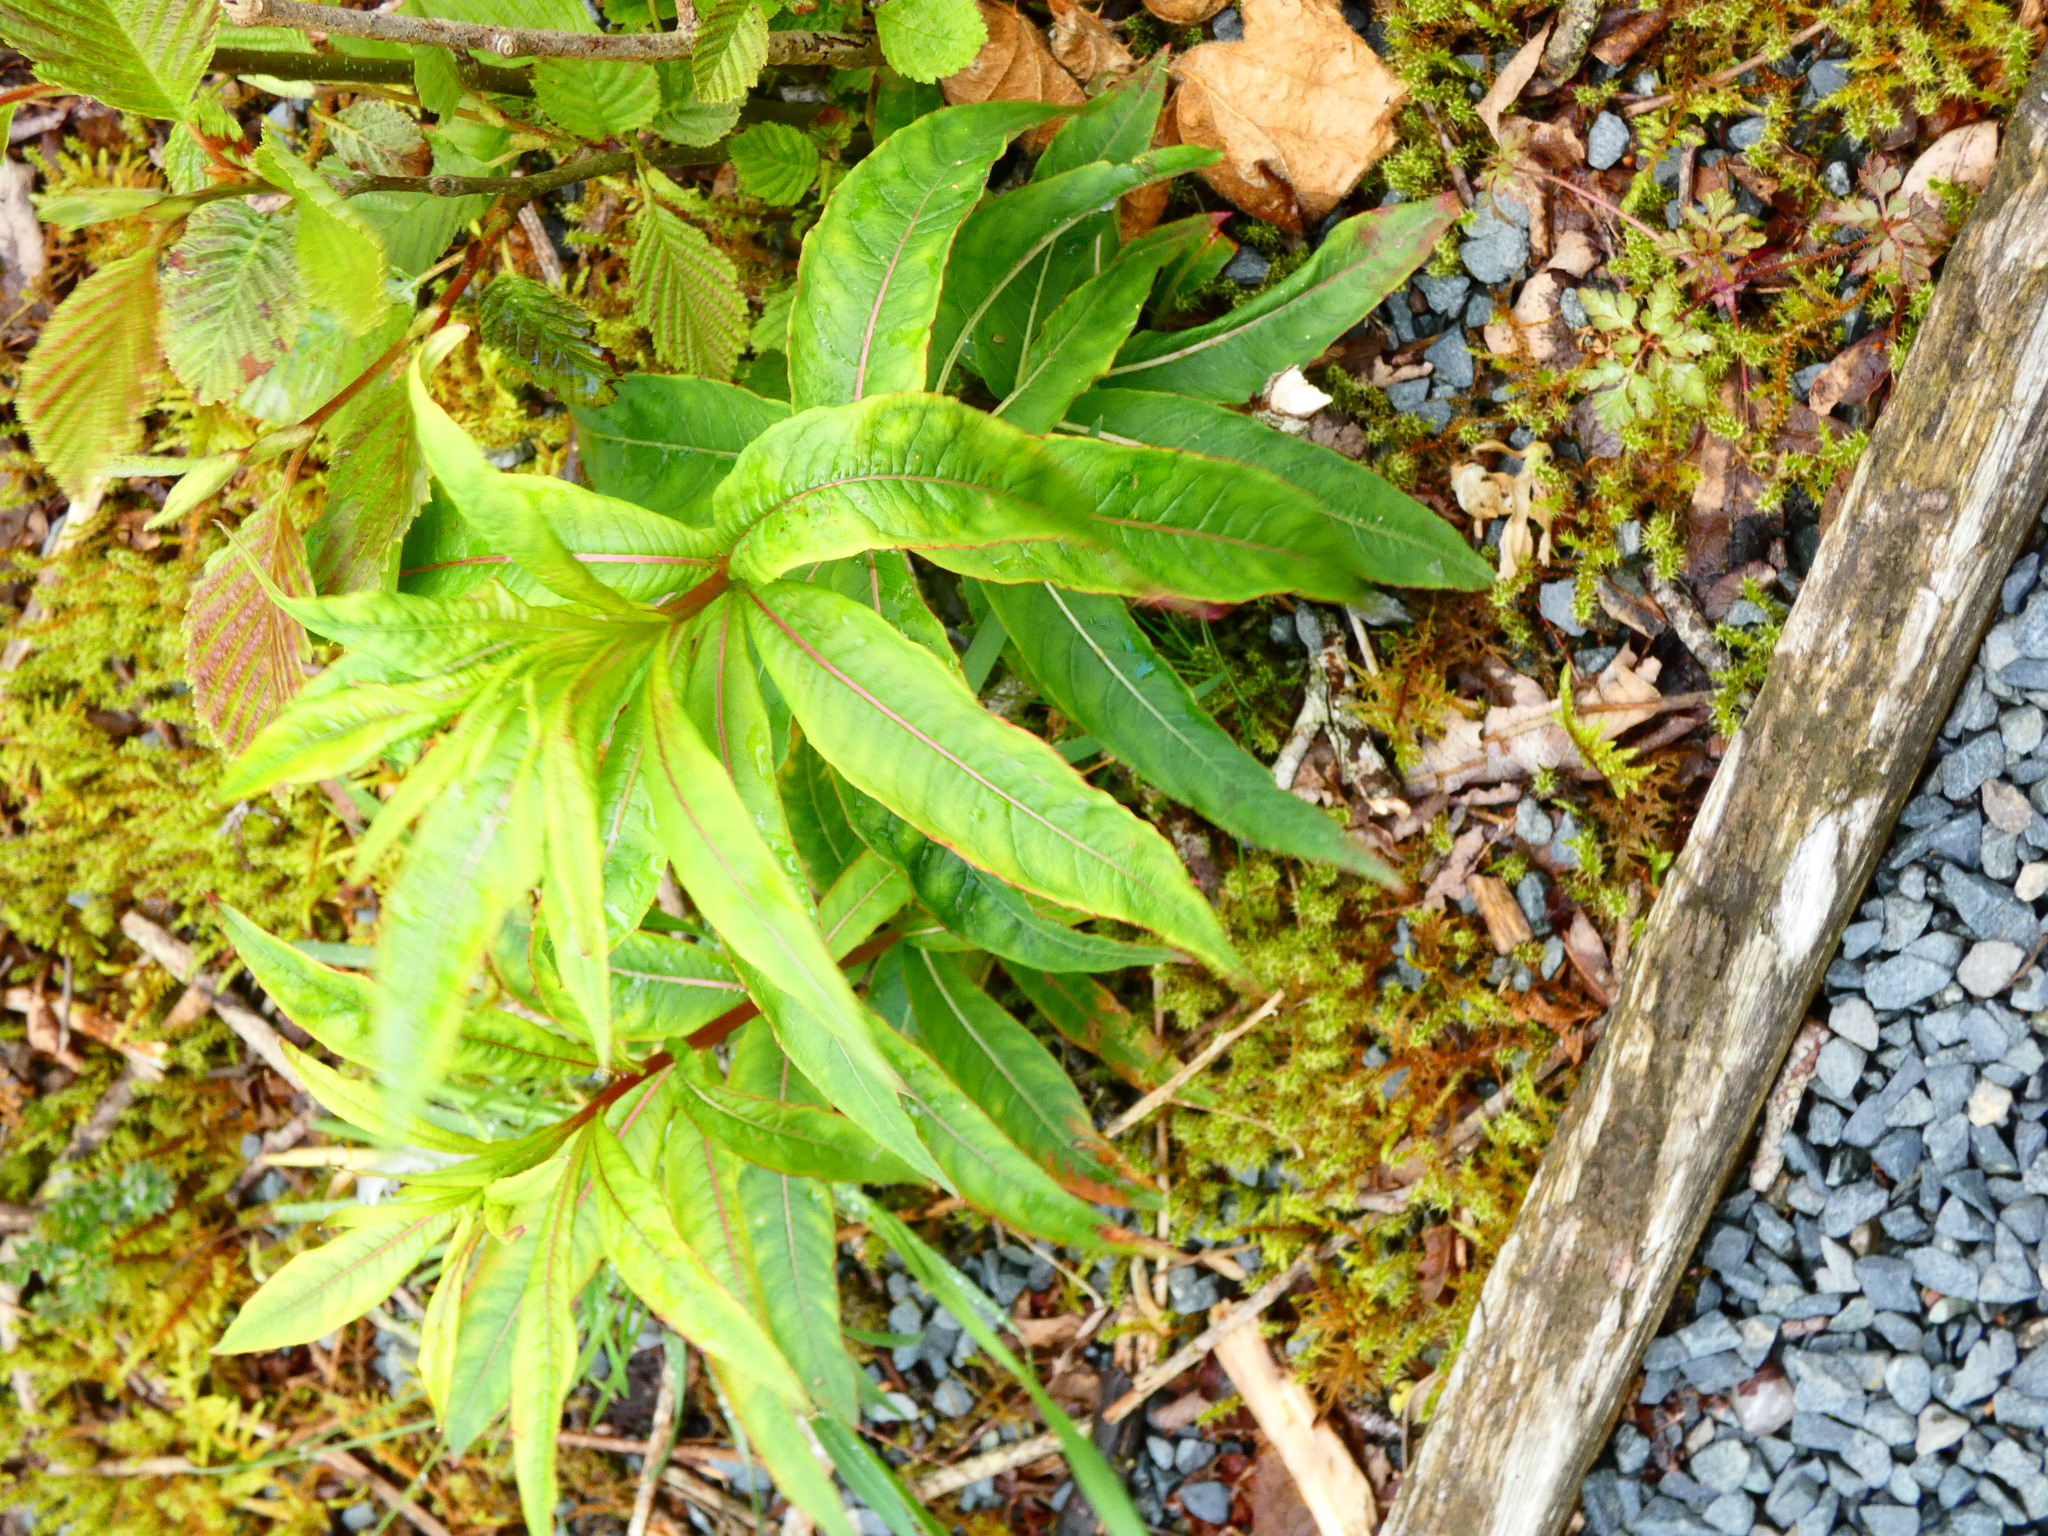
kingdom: Plantae
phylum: Tracheophyta
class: Magnoliopsida
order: Myrtales
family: Onagraceae
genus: Chamaenerion
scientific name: Chamaenerion angustifolium
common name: Fireweed
